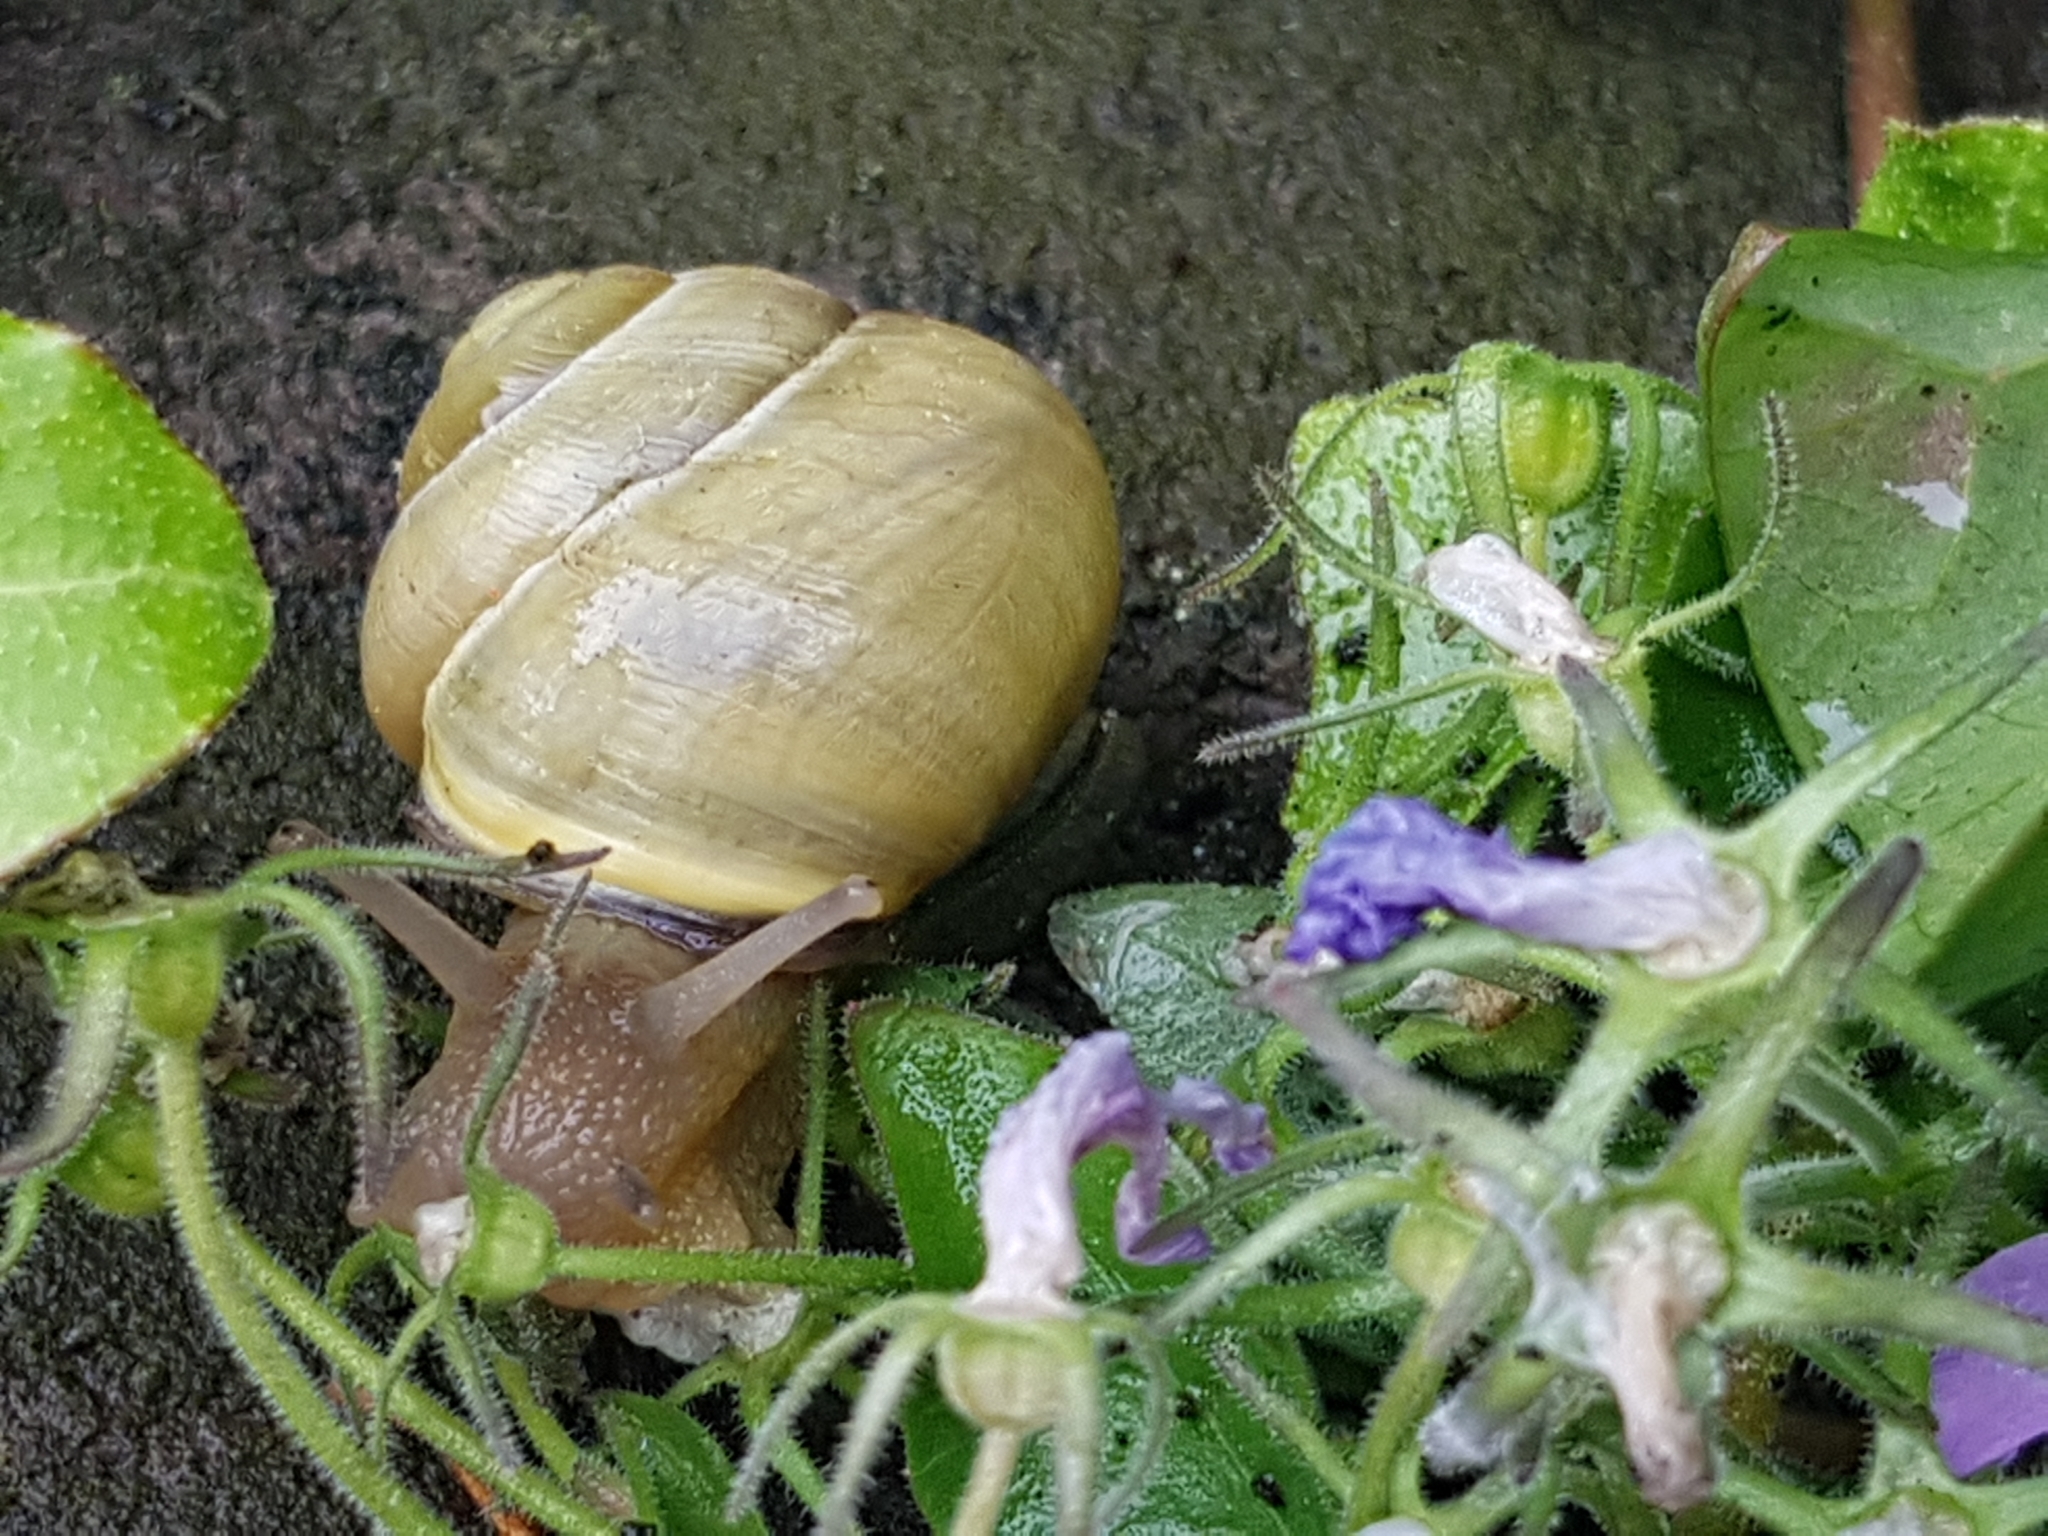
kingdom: Animalia
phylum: Mollusca
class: Gastropoda
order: Stylommatophora
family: Helicidae
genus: Cepaea
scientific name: Cepaea nemoralis
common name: Grovesnail
